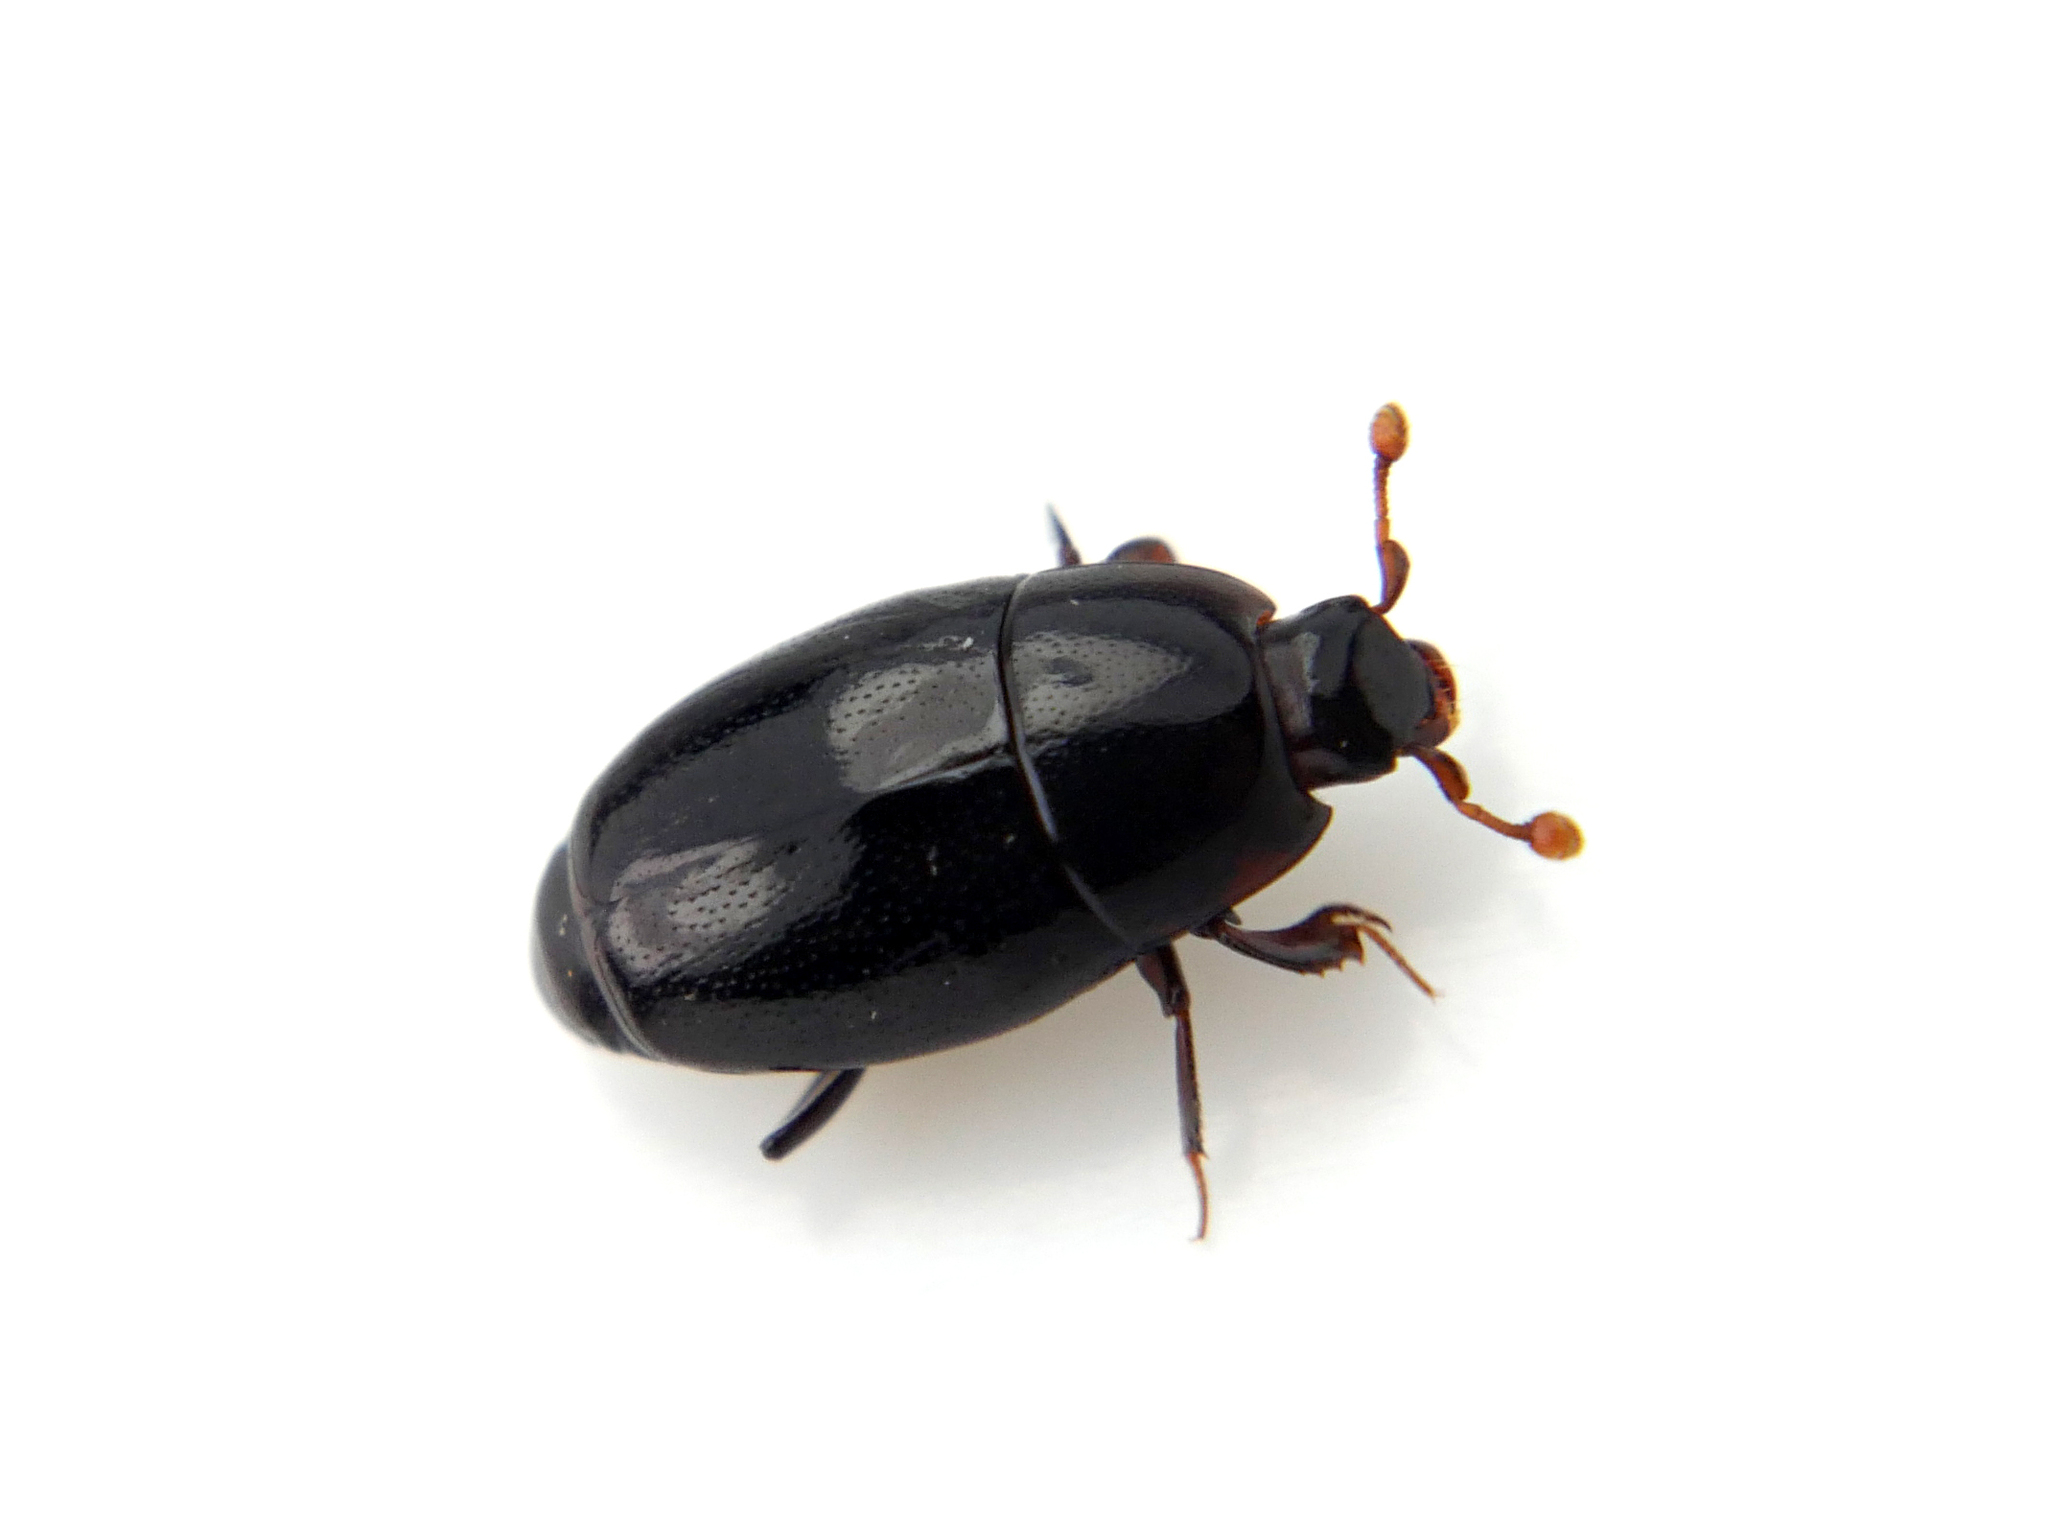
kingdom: Animalia
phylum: Arthropoda
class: Insecta
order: Coleoptera
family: Histeridae
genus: Paromalus
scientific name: Paromalus flavicornis
